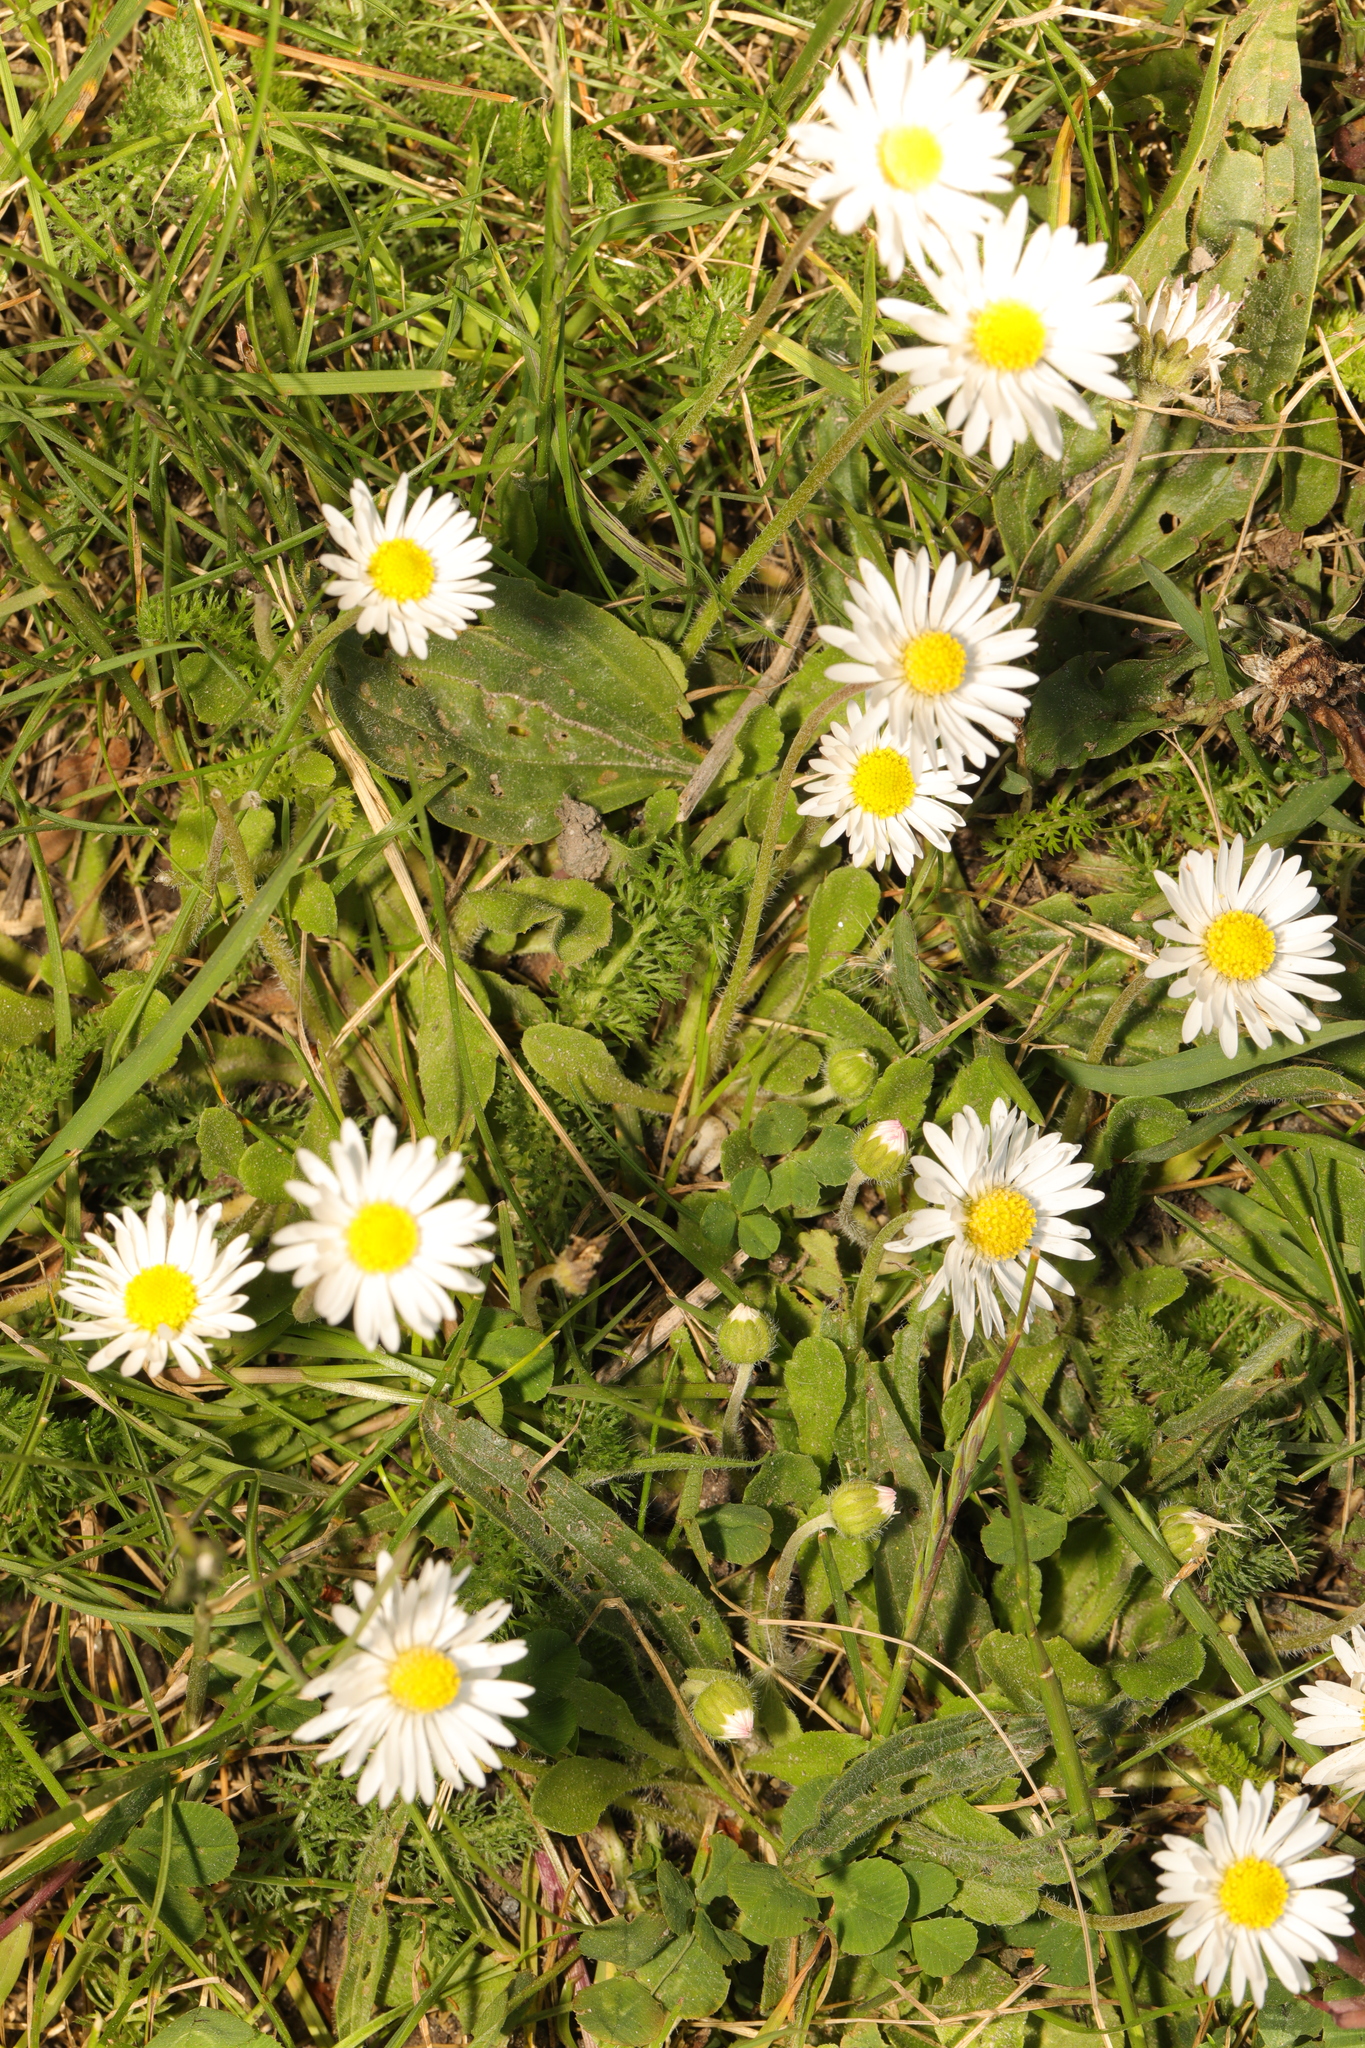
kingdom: Plantae
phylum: Tracheophyta
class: Magnoliopsida
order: Asterales
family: Asteraceae
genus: Bellis
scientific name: Bellis perennis
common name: Lawndaisy
